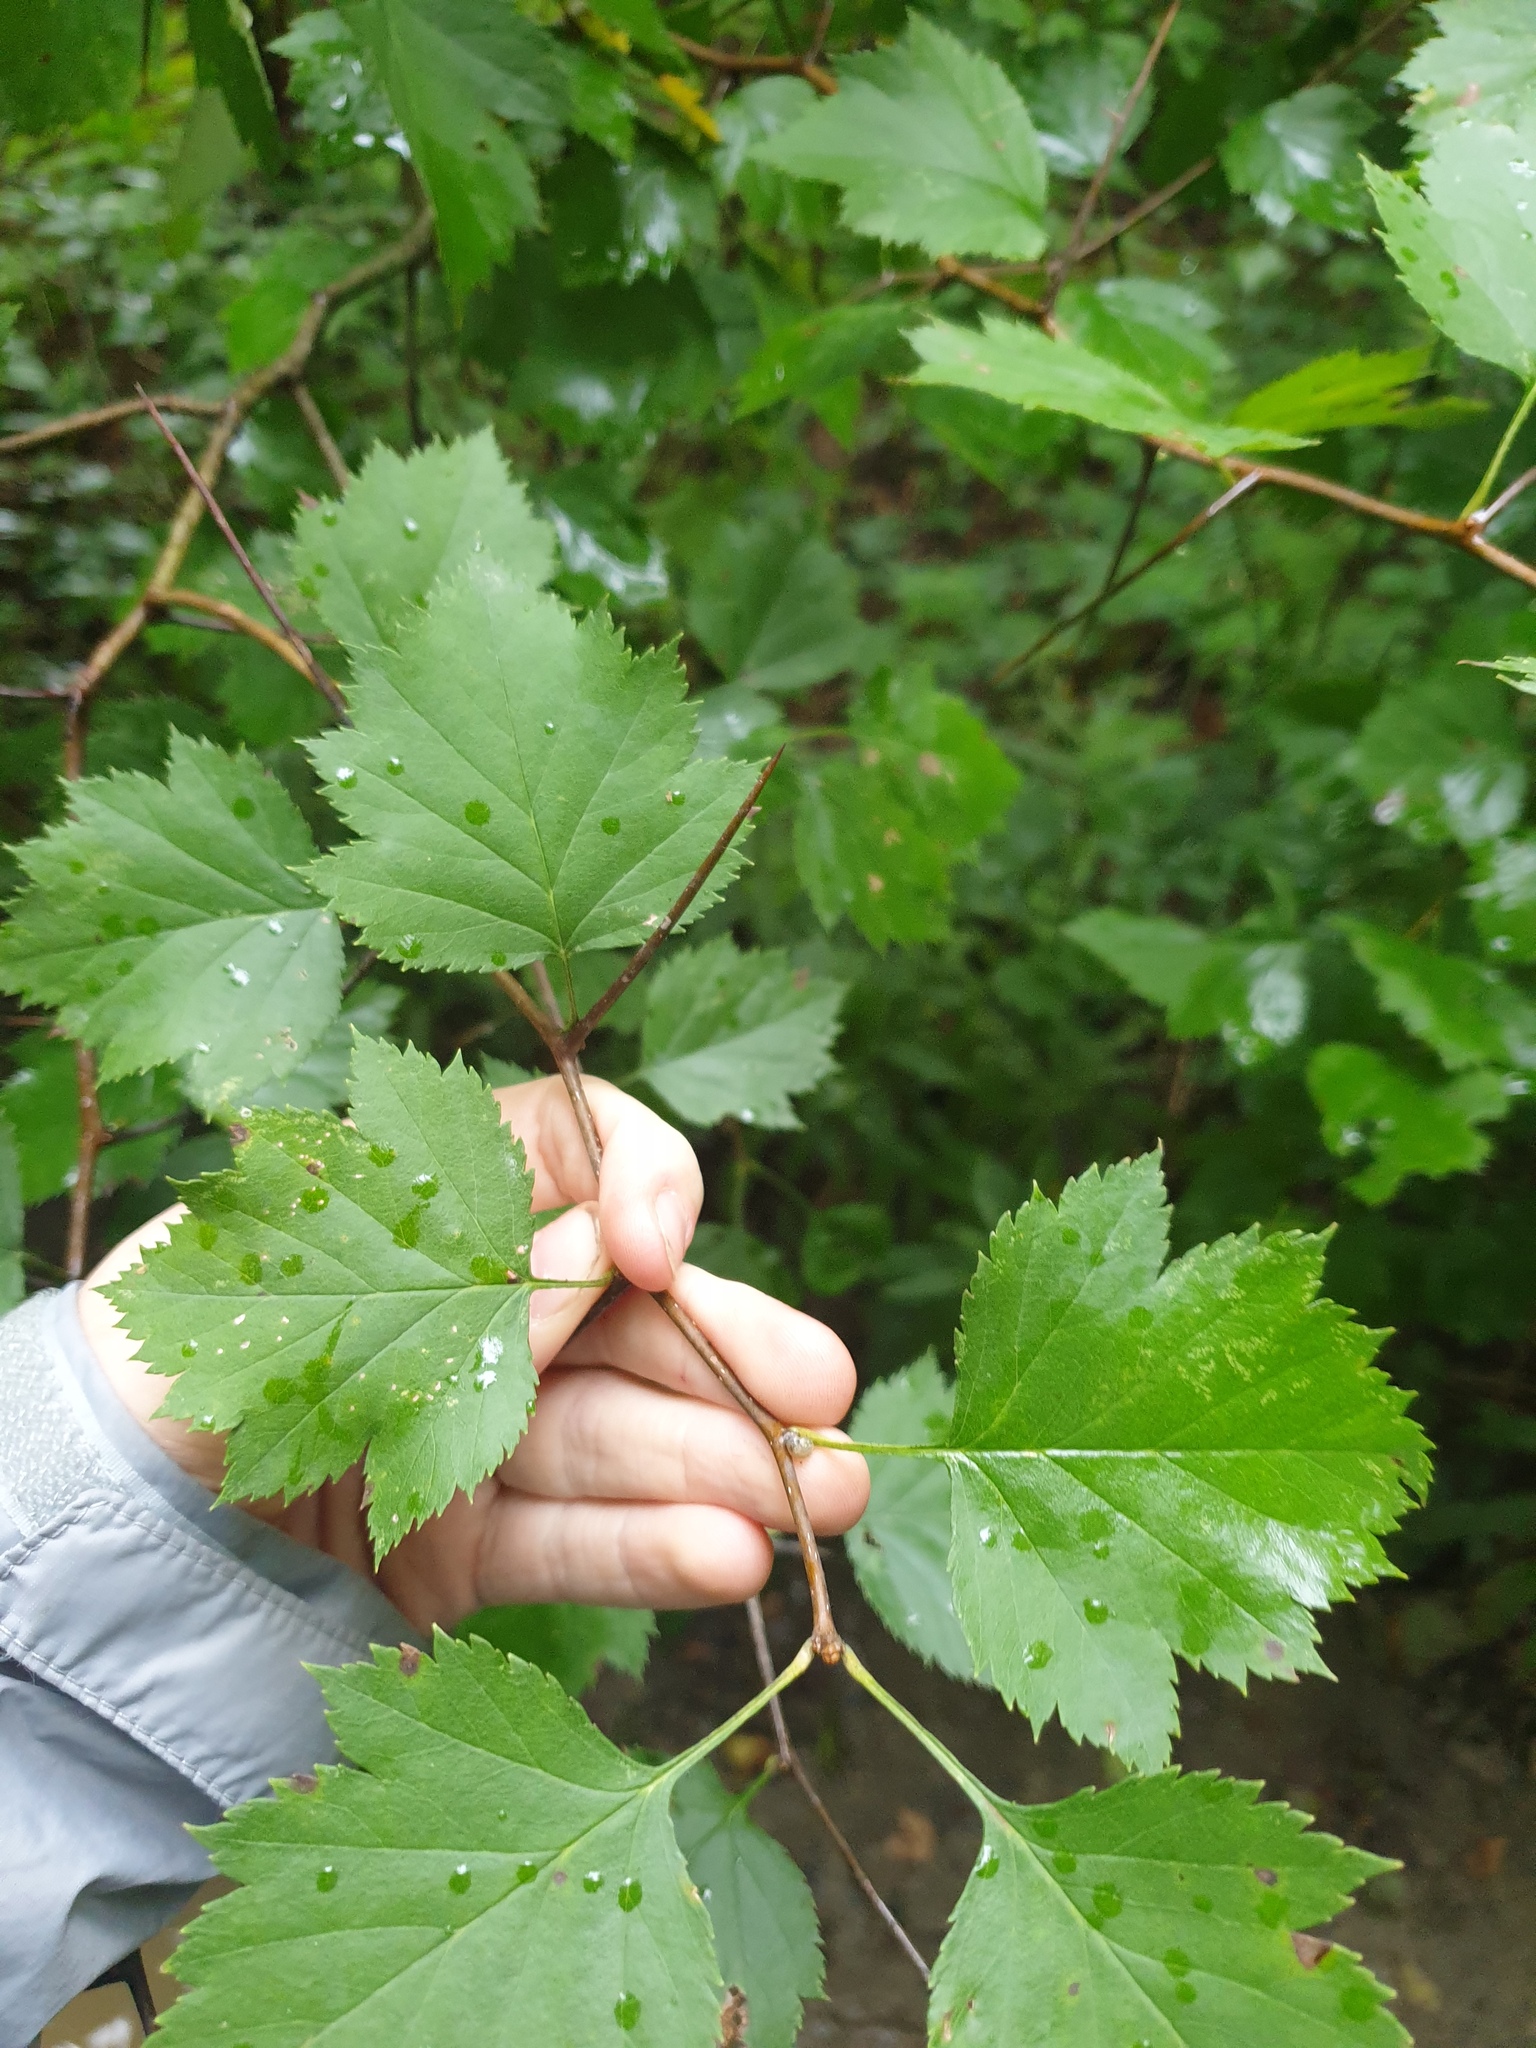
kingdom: Plantae
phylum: Tracheophyta
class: Magnoliopsida
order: Rosales
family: Rosaceae
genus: Crataegus
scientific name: Crataegus pruinosa
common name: Waxy-fruit hawthorn
